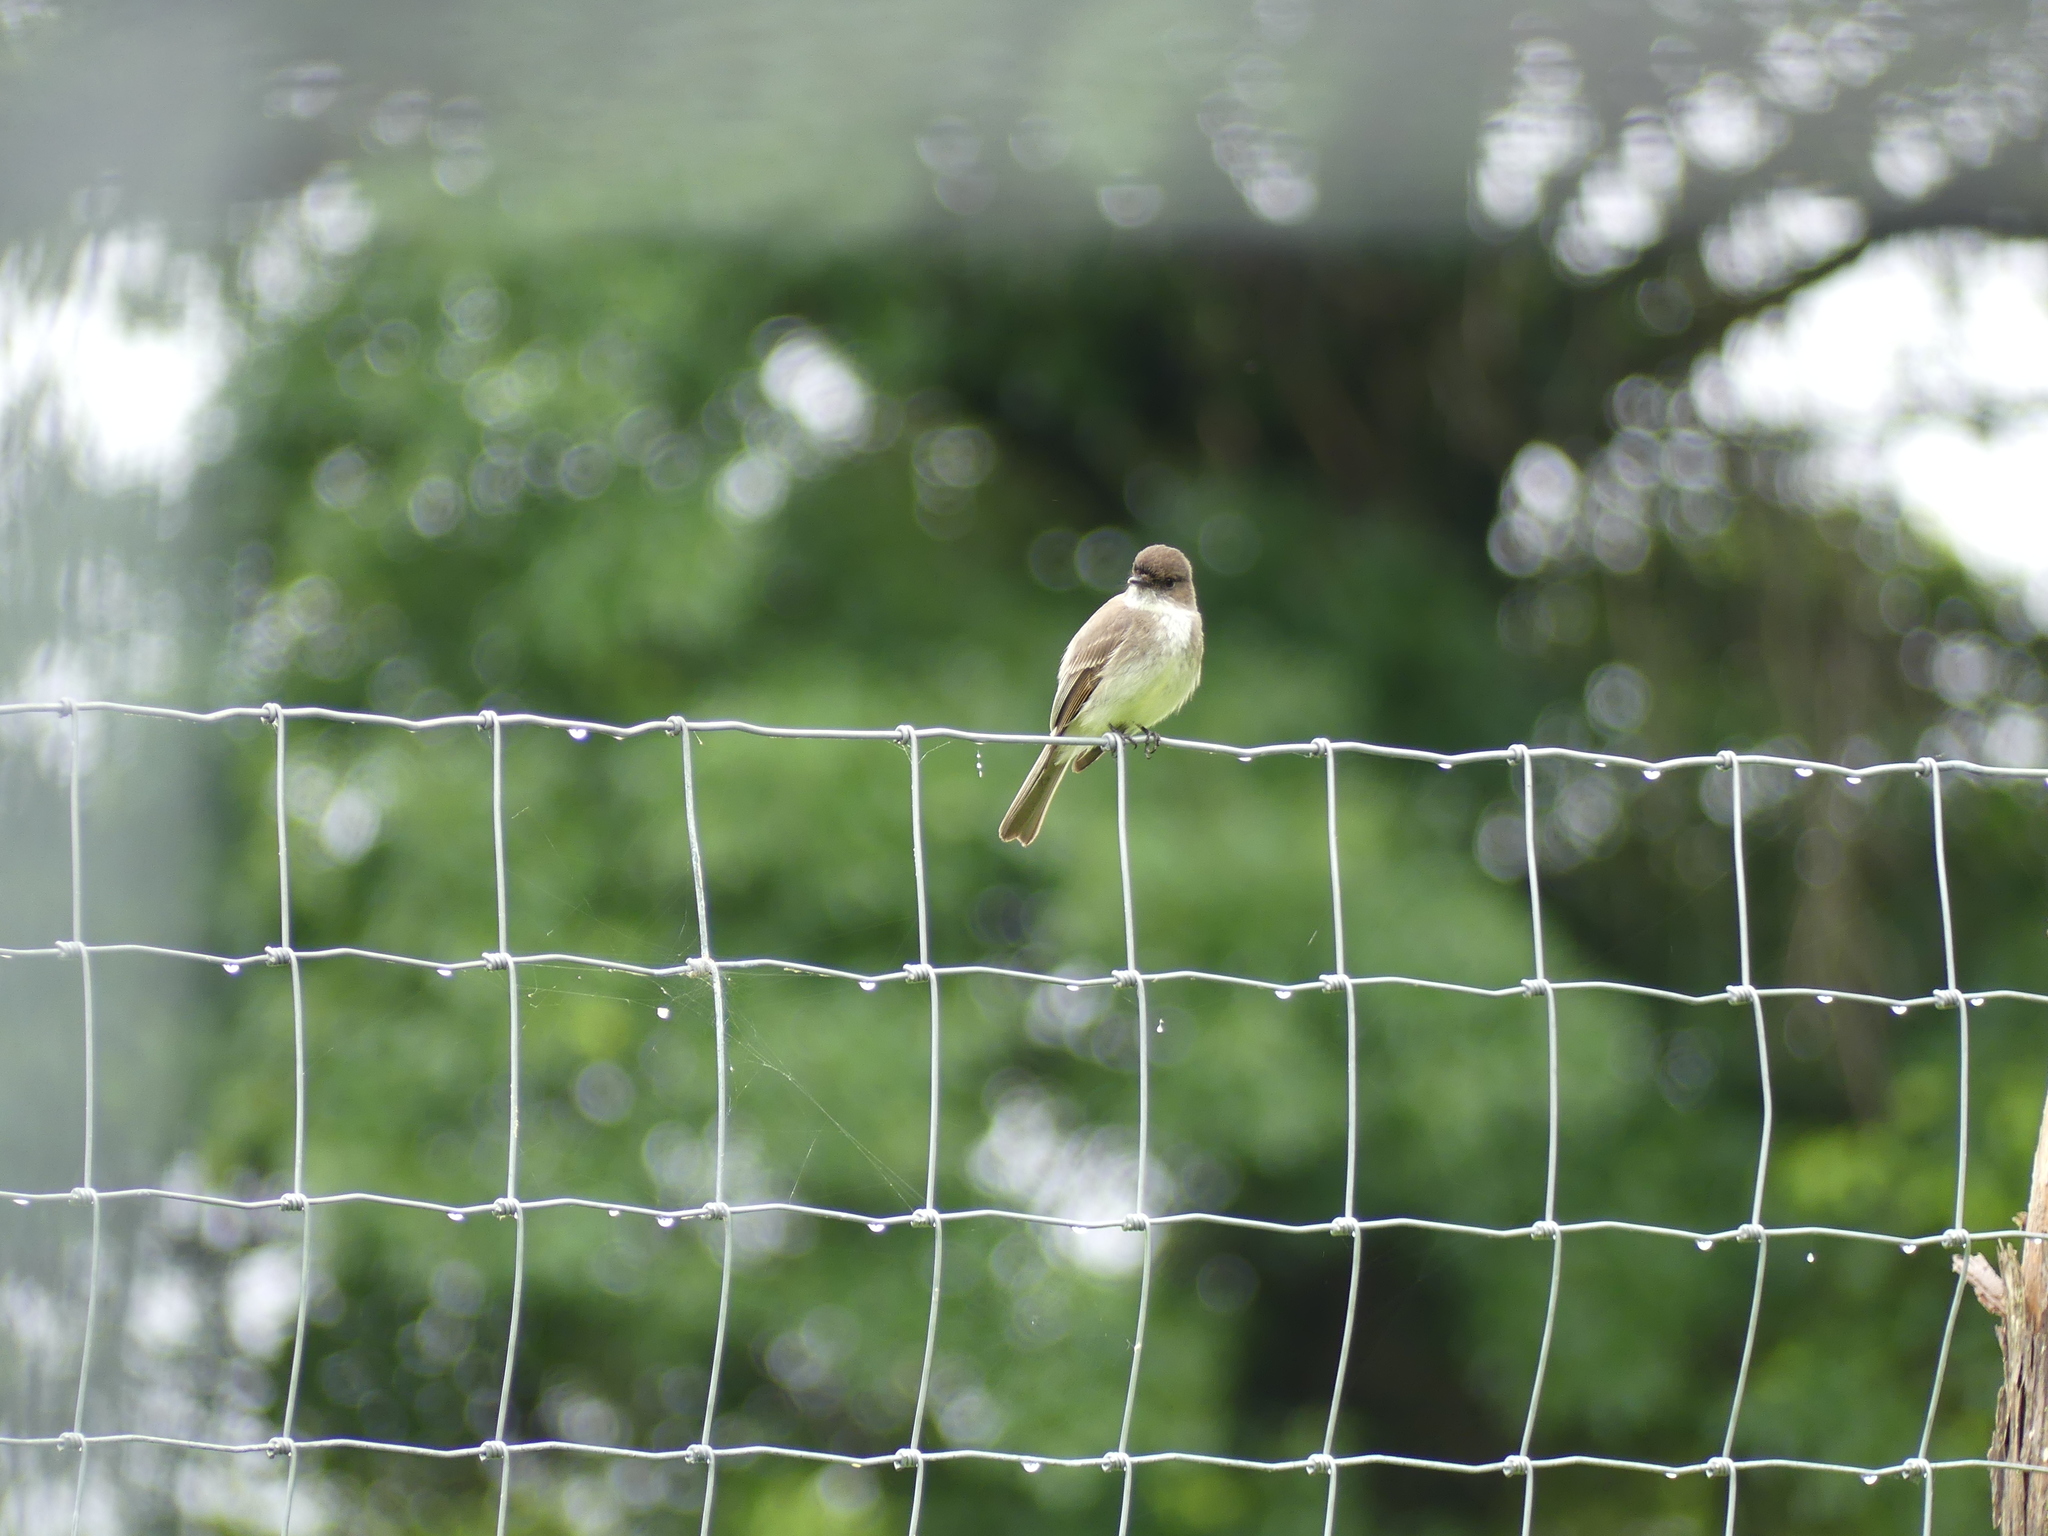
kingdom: Animalia
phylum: Chordata
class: Aves
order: Passeriformes
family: Tyrannidae
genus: Sayornis
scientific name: Sayornis phoebe
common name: Eastern phoebe
